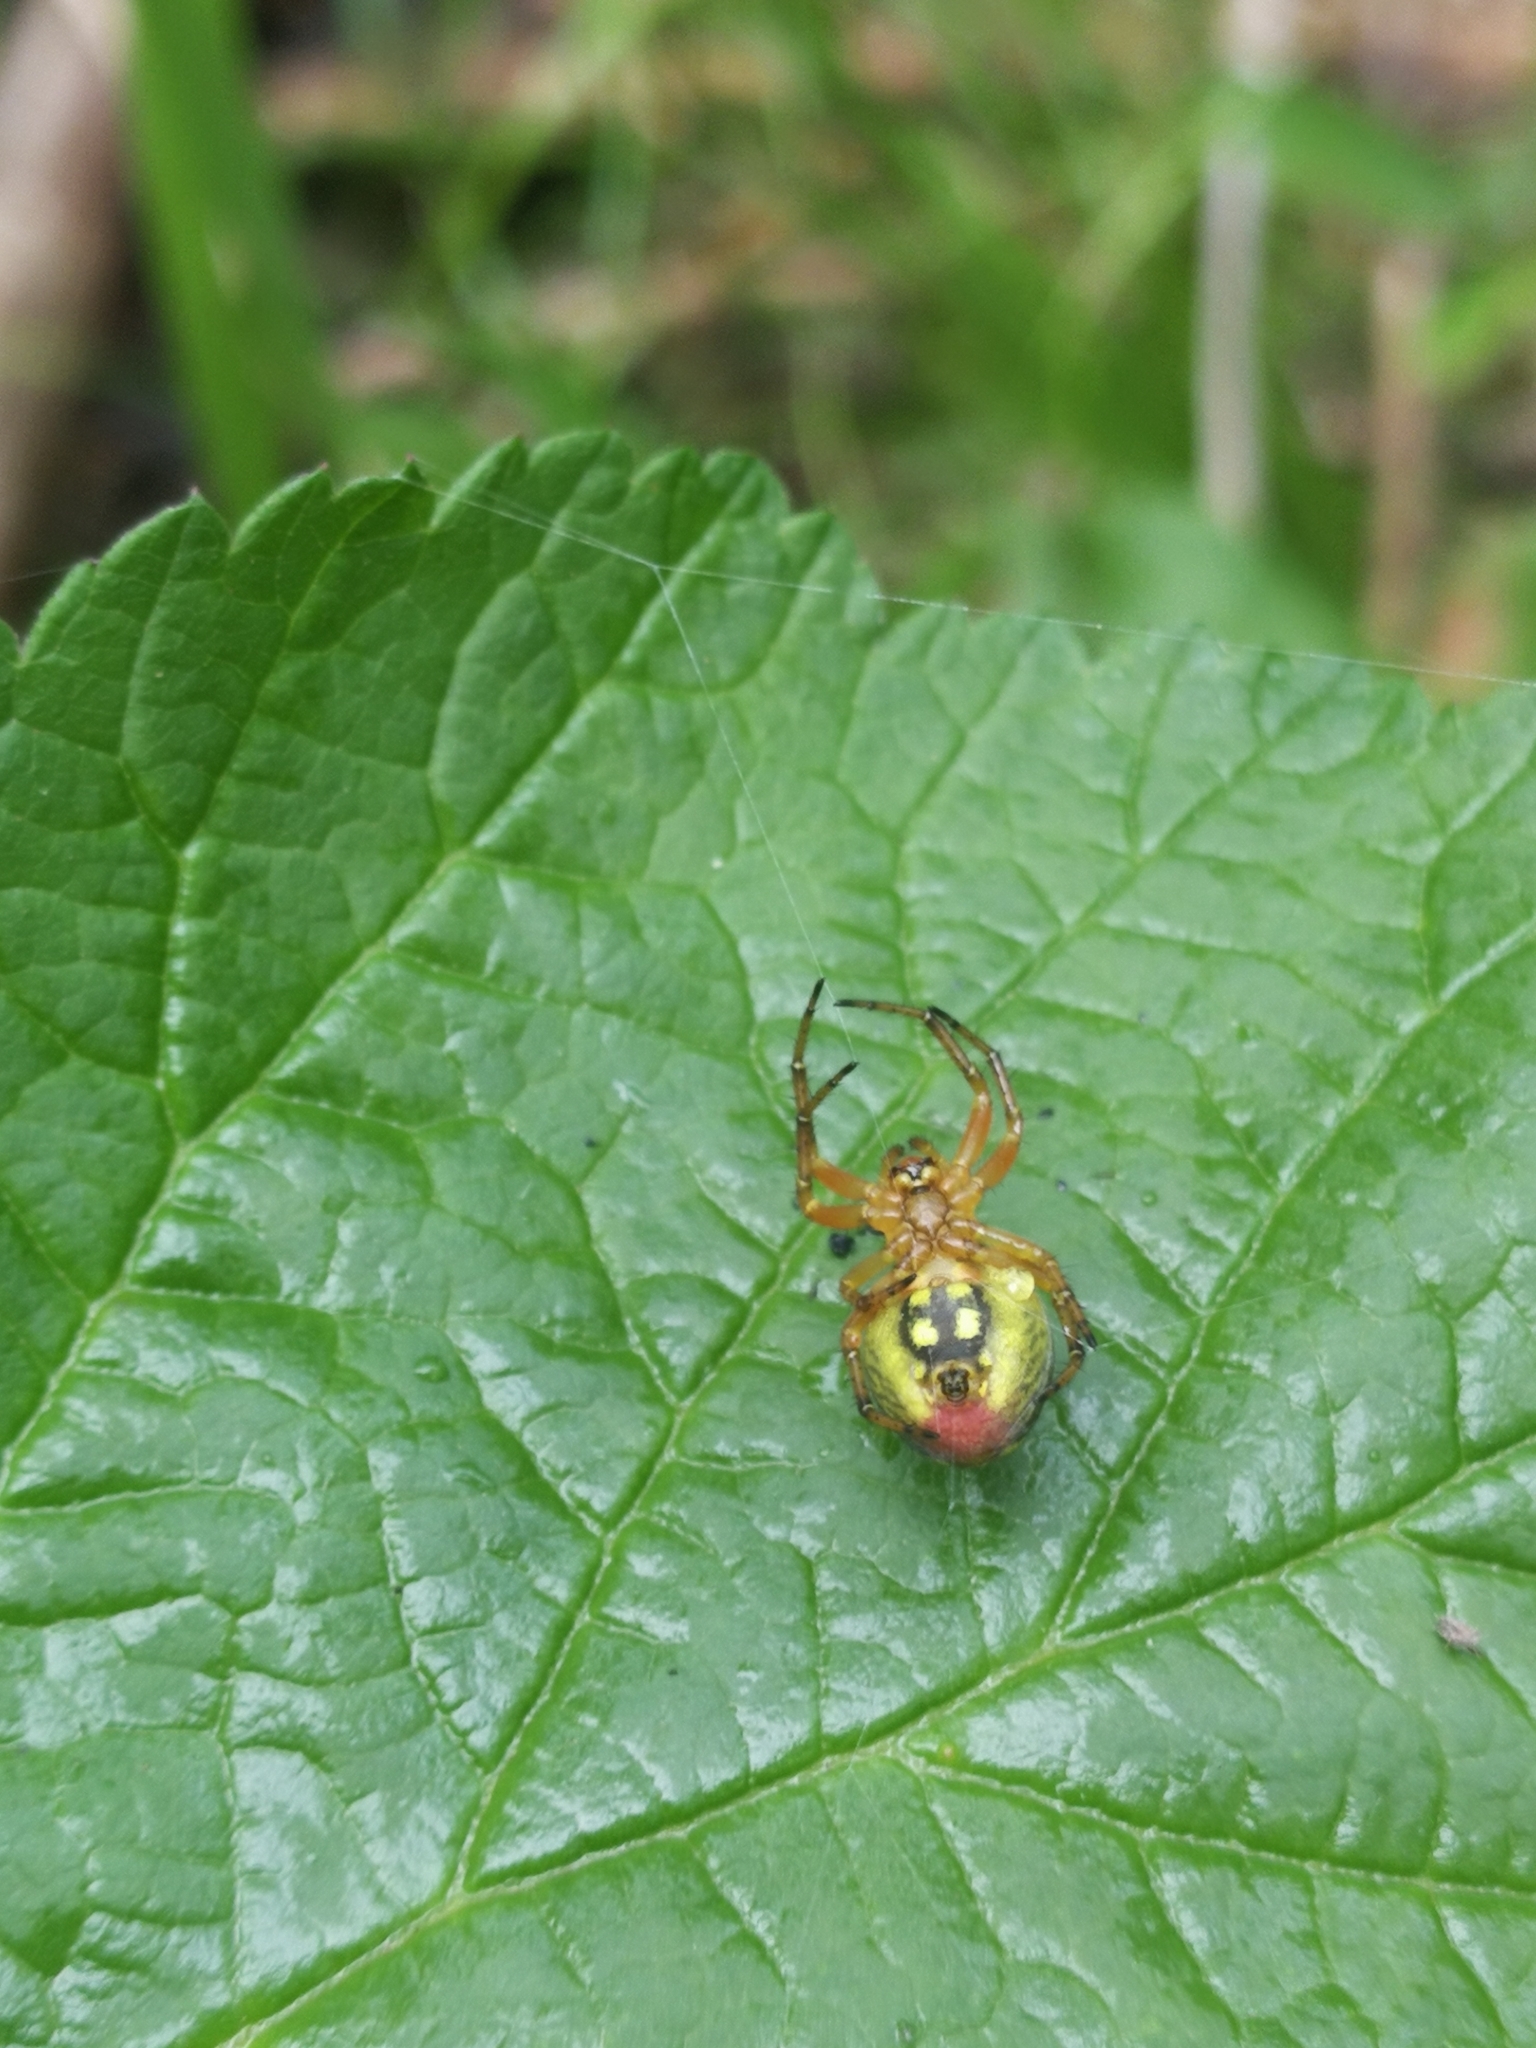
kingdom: Animalia
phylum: Arthropoda
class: Arachnida
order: Araneae
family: Araneidae
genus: Araniella
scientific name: Araniella alpica
